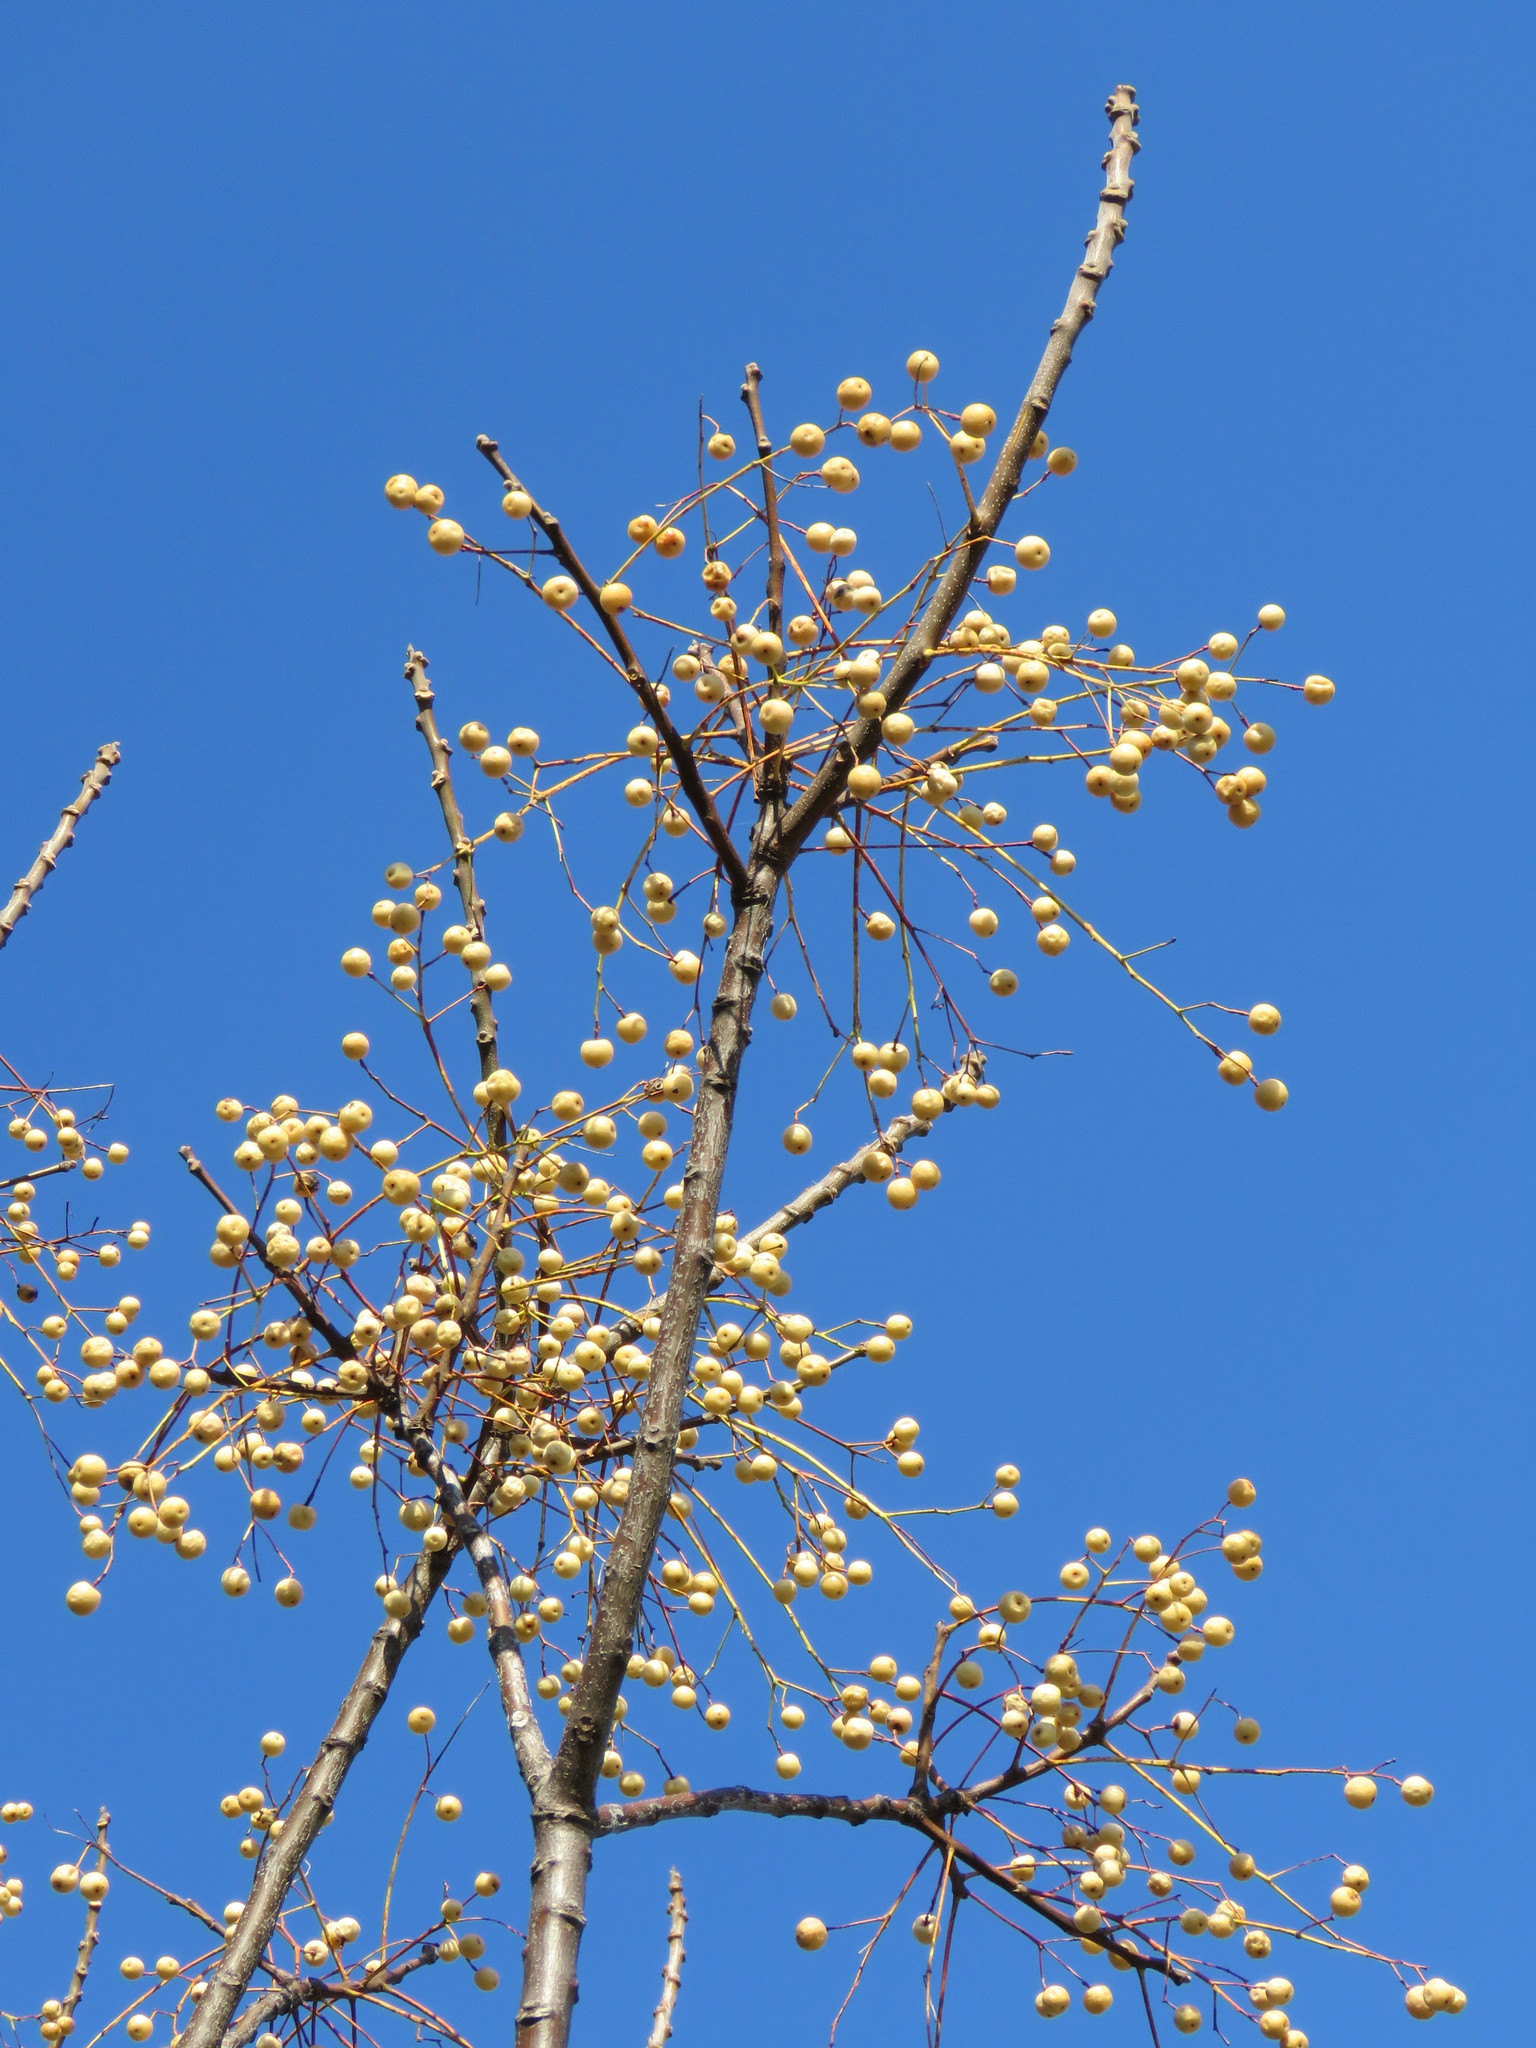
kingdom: Plantae
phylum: Tracheophyta
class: Magnoliopsida
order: Sapindales
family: Meliaceae
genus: Melia
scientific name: Melia azedarach
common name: Chinaberrytree
